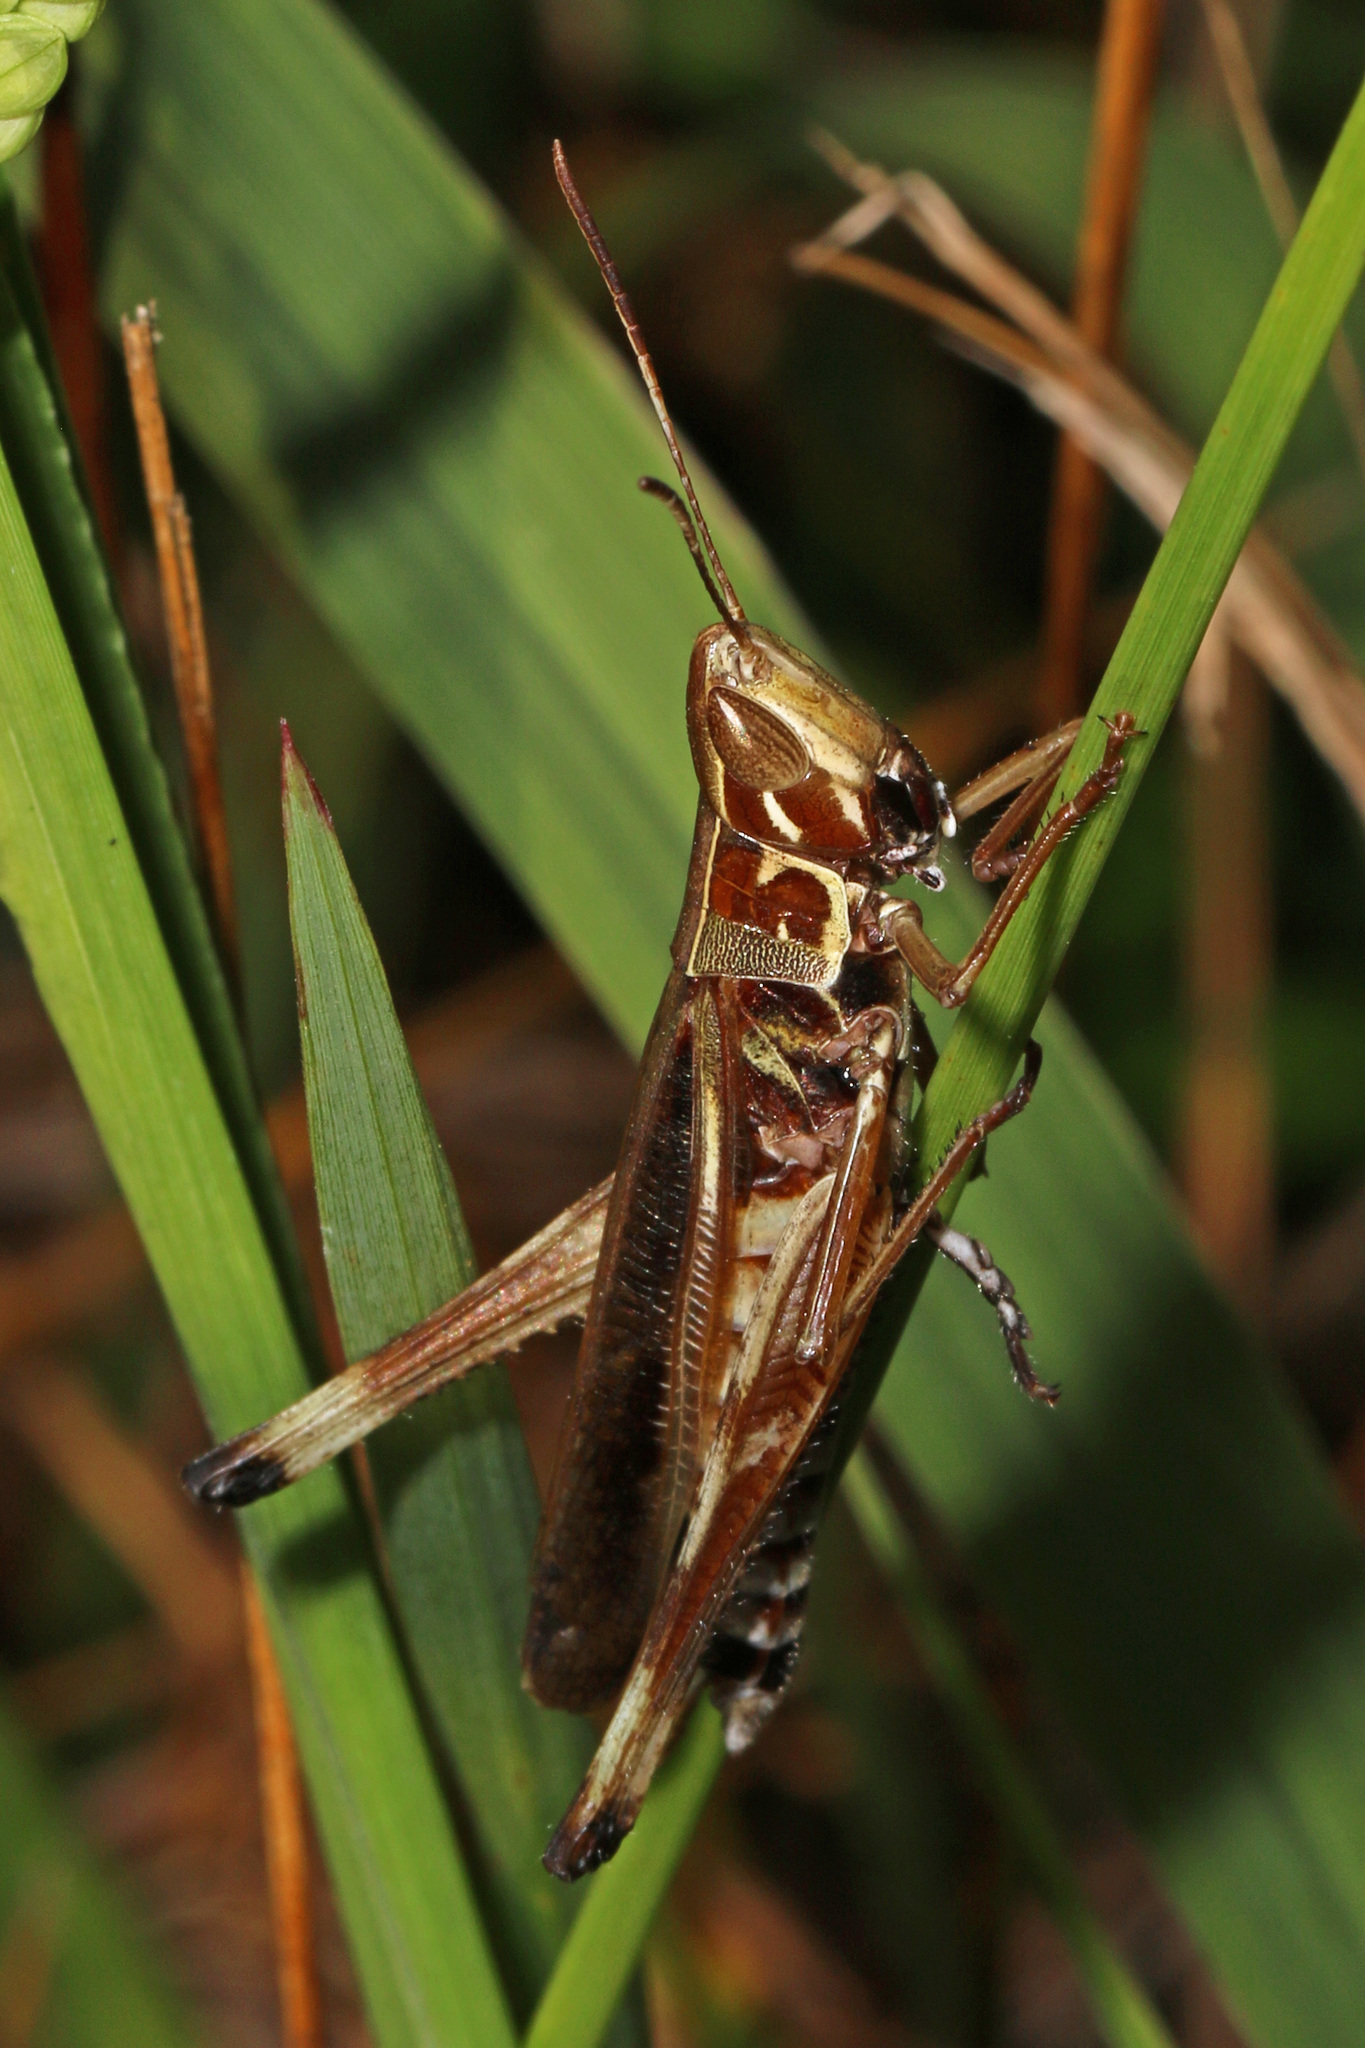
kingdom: Animalia
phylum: Arthropoda
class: Insecta
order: Orthoptera
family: Acrididae
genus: Syrbula
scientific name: Syrbula admirabilis
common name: Handsome grasshopper
